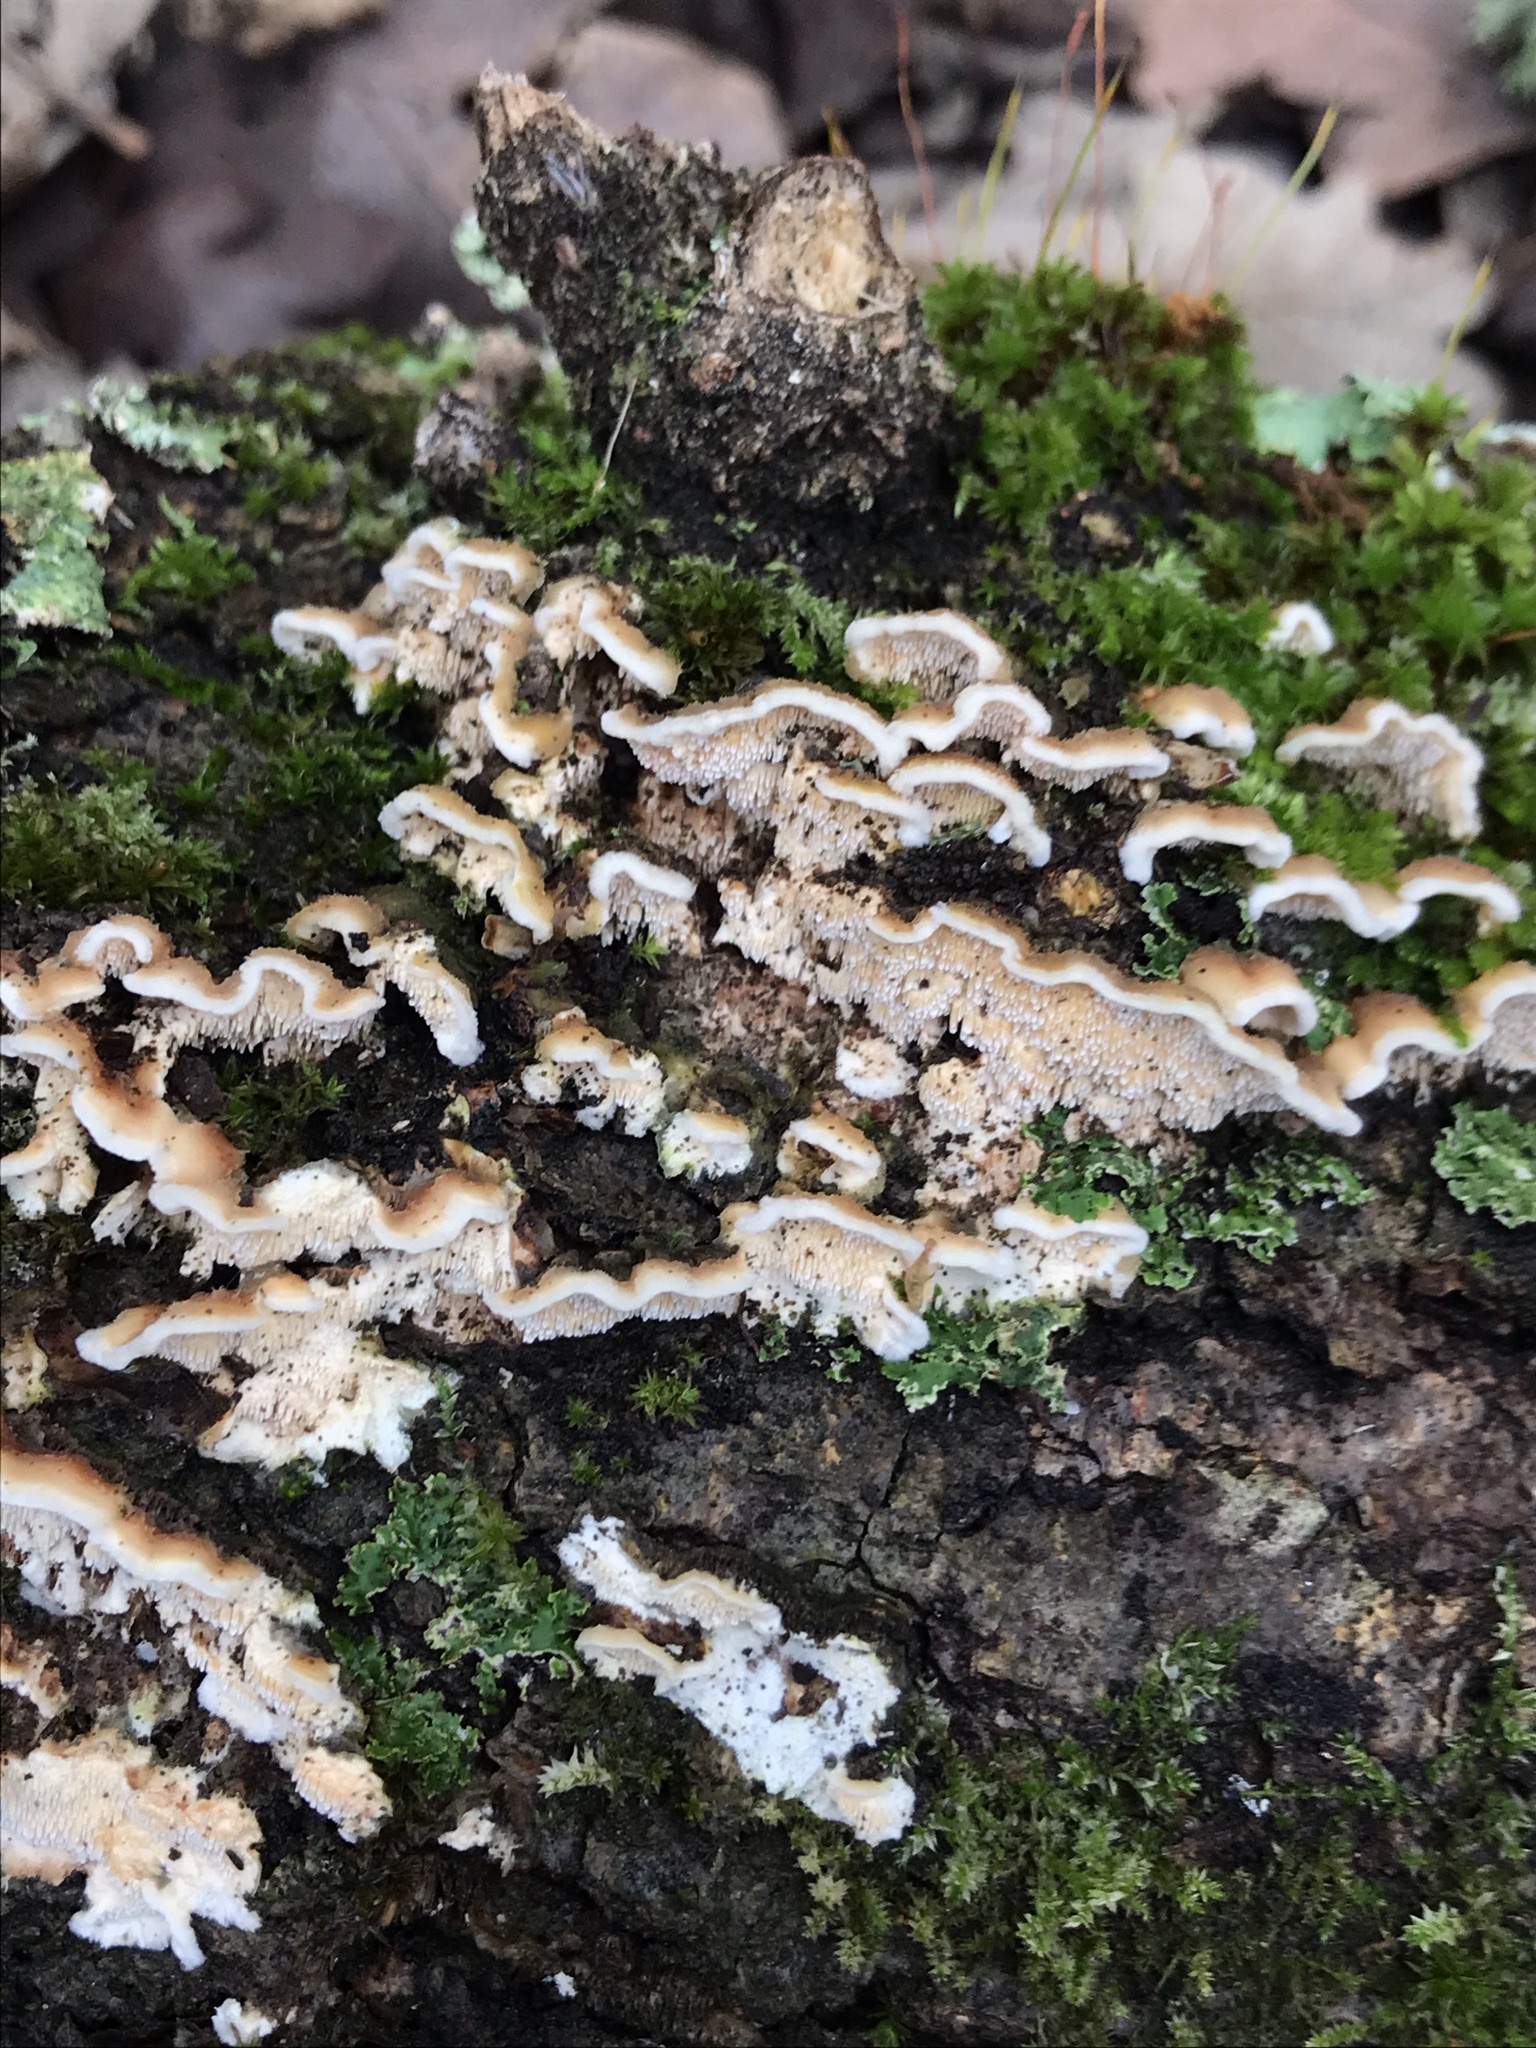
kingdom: Fungi
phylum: Basidiomycota
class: Agaricomycetes
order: Polyporales
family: Steccherinaceae
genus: Steccherinum
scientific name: Steccherinum ochraceum
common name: Ochre spreading tooth
